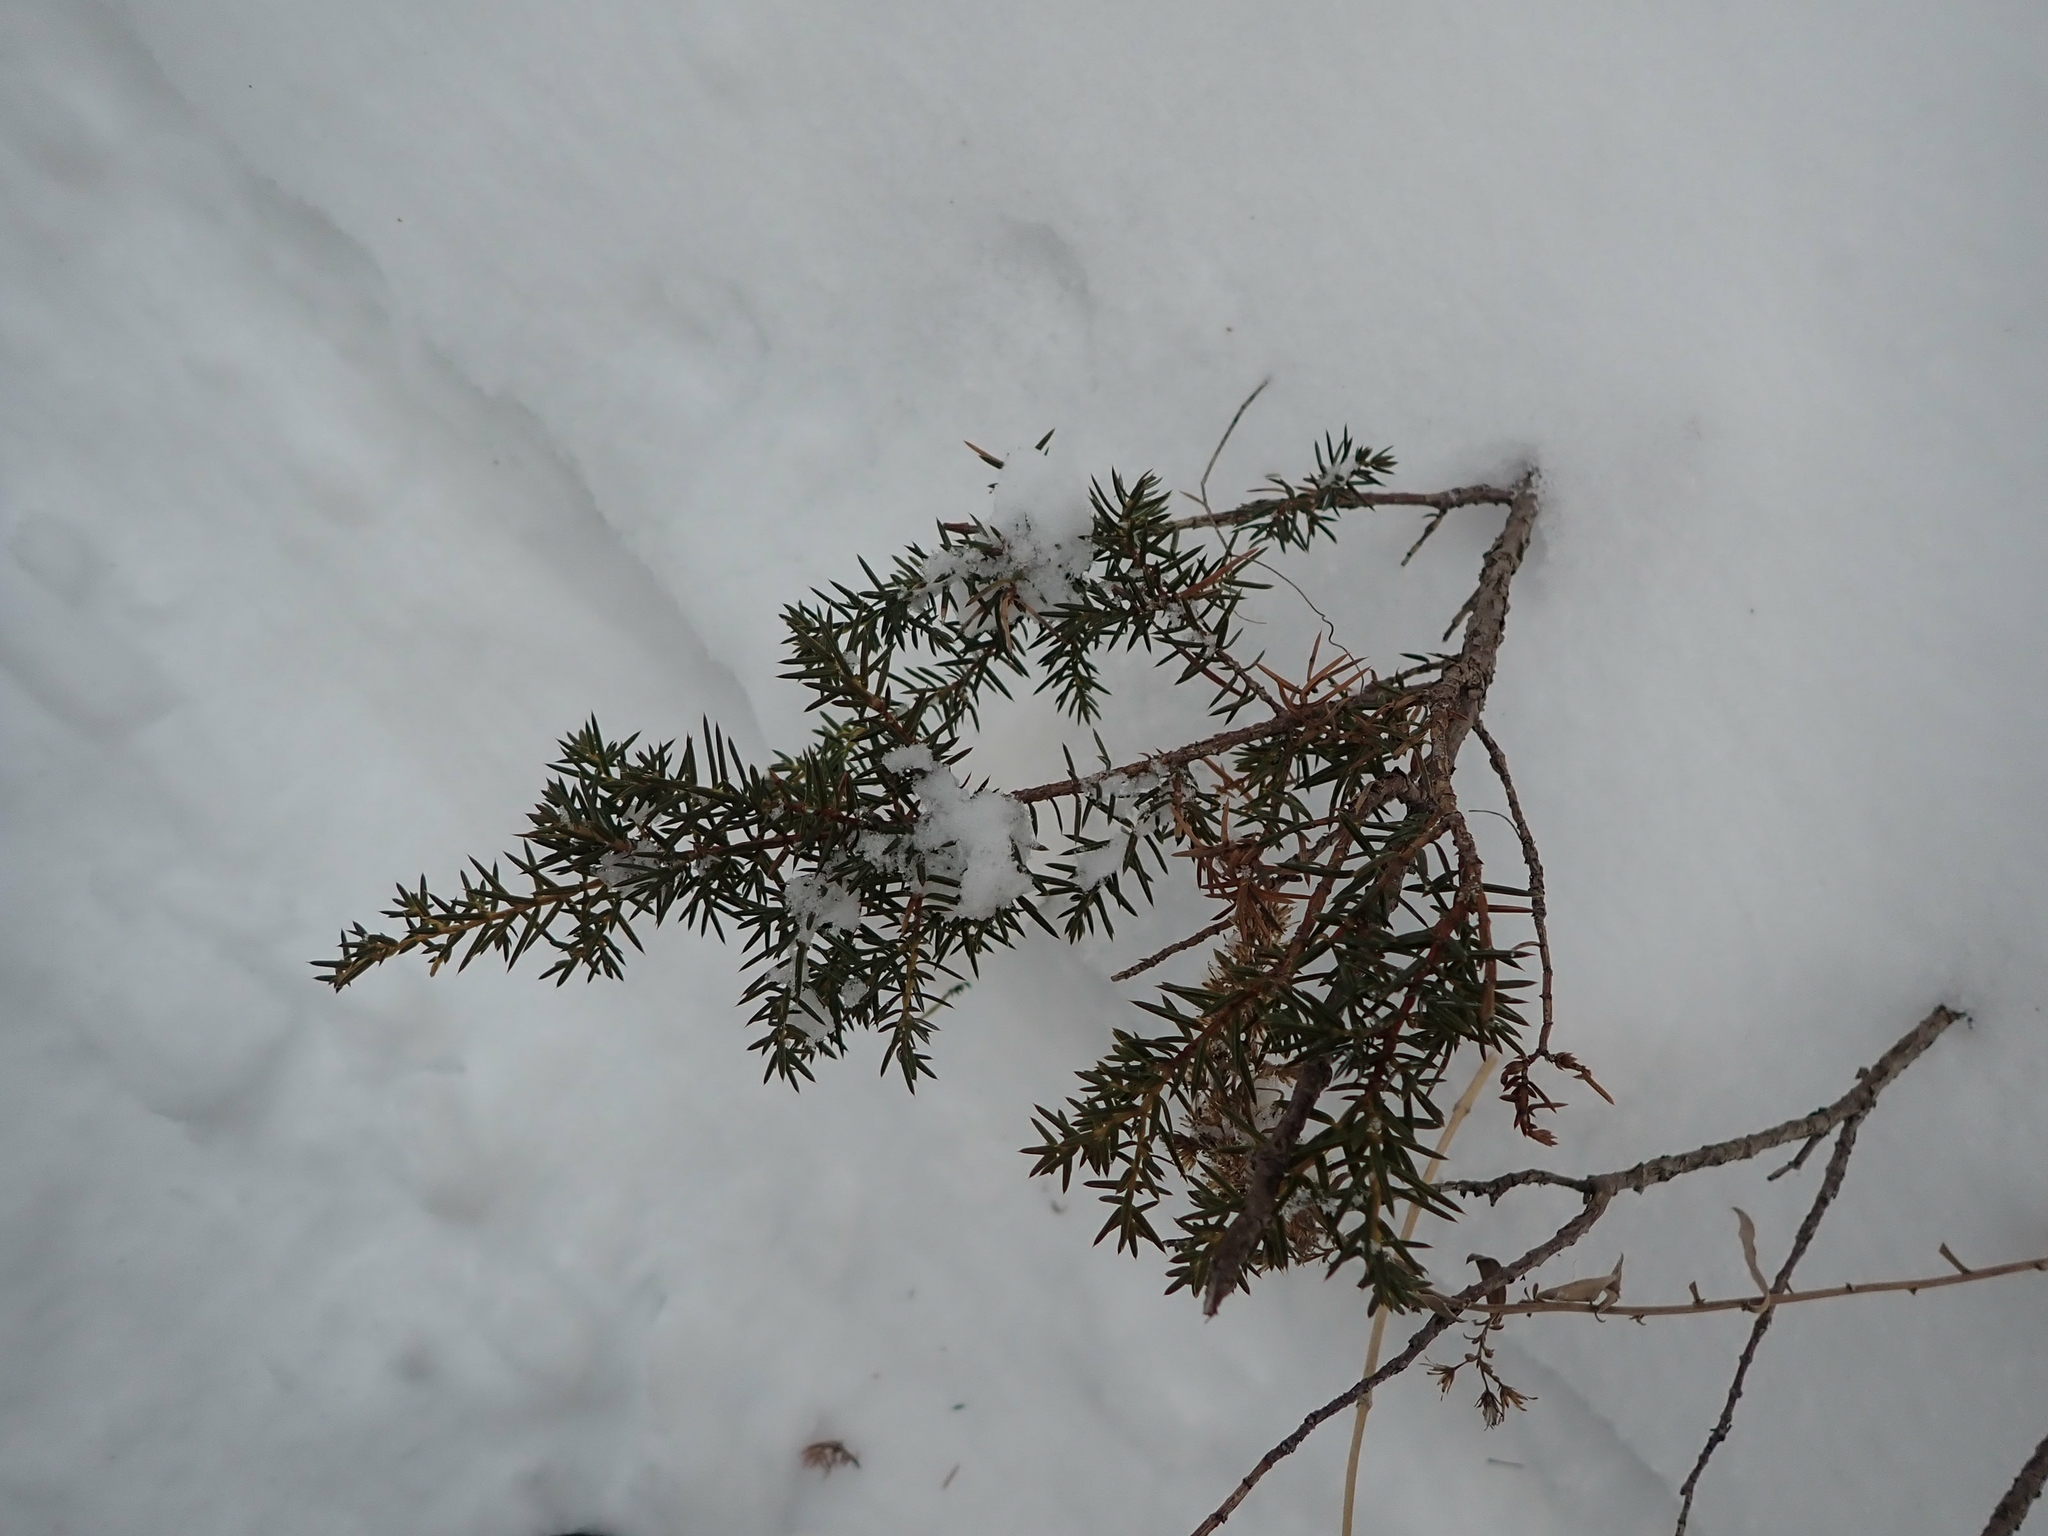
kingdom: Plantae
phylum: Tracheophyta
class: Pinopsida
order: Pinales
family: Cupressaceae
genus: Juniperus
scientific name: Juniperus communis
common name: Common juniper
